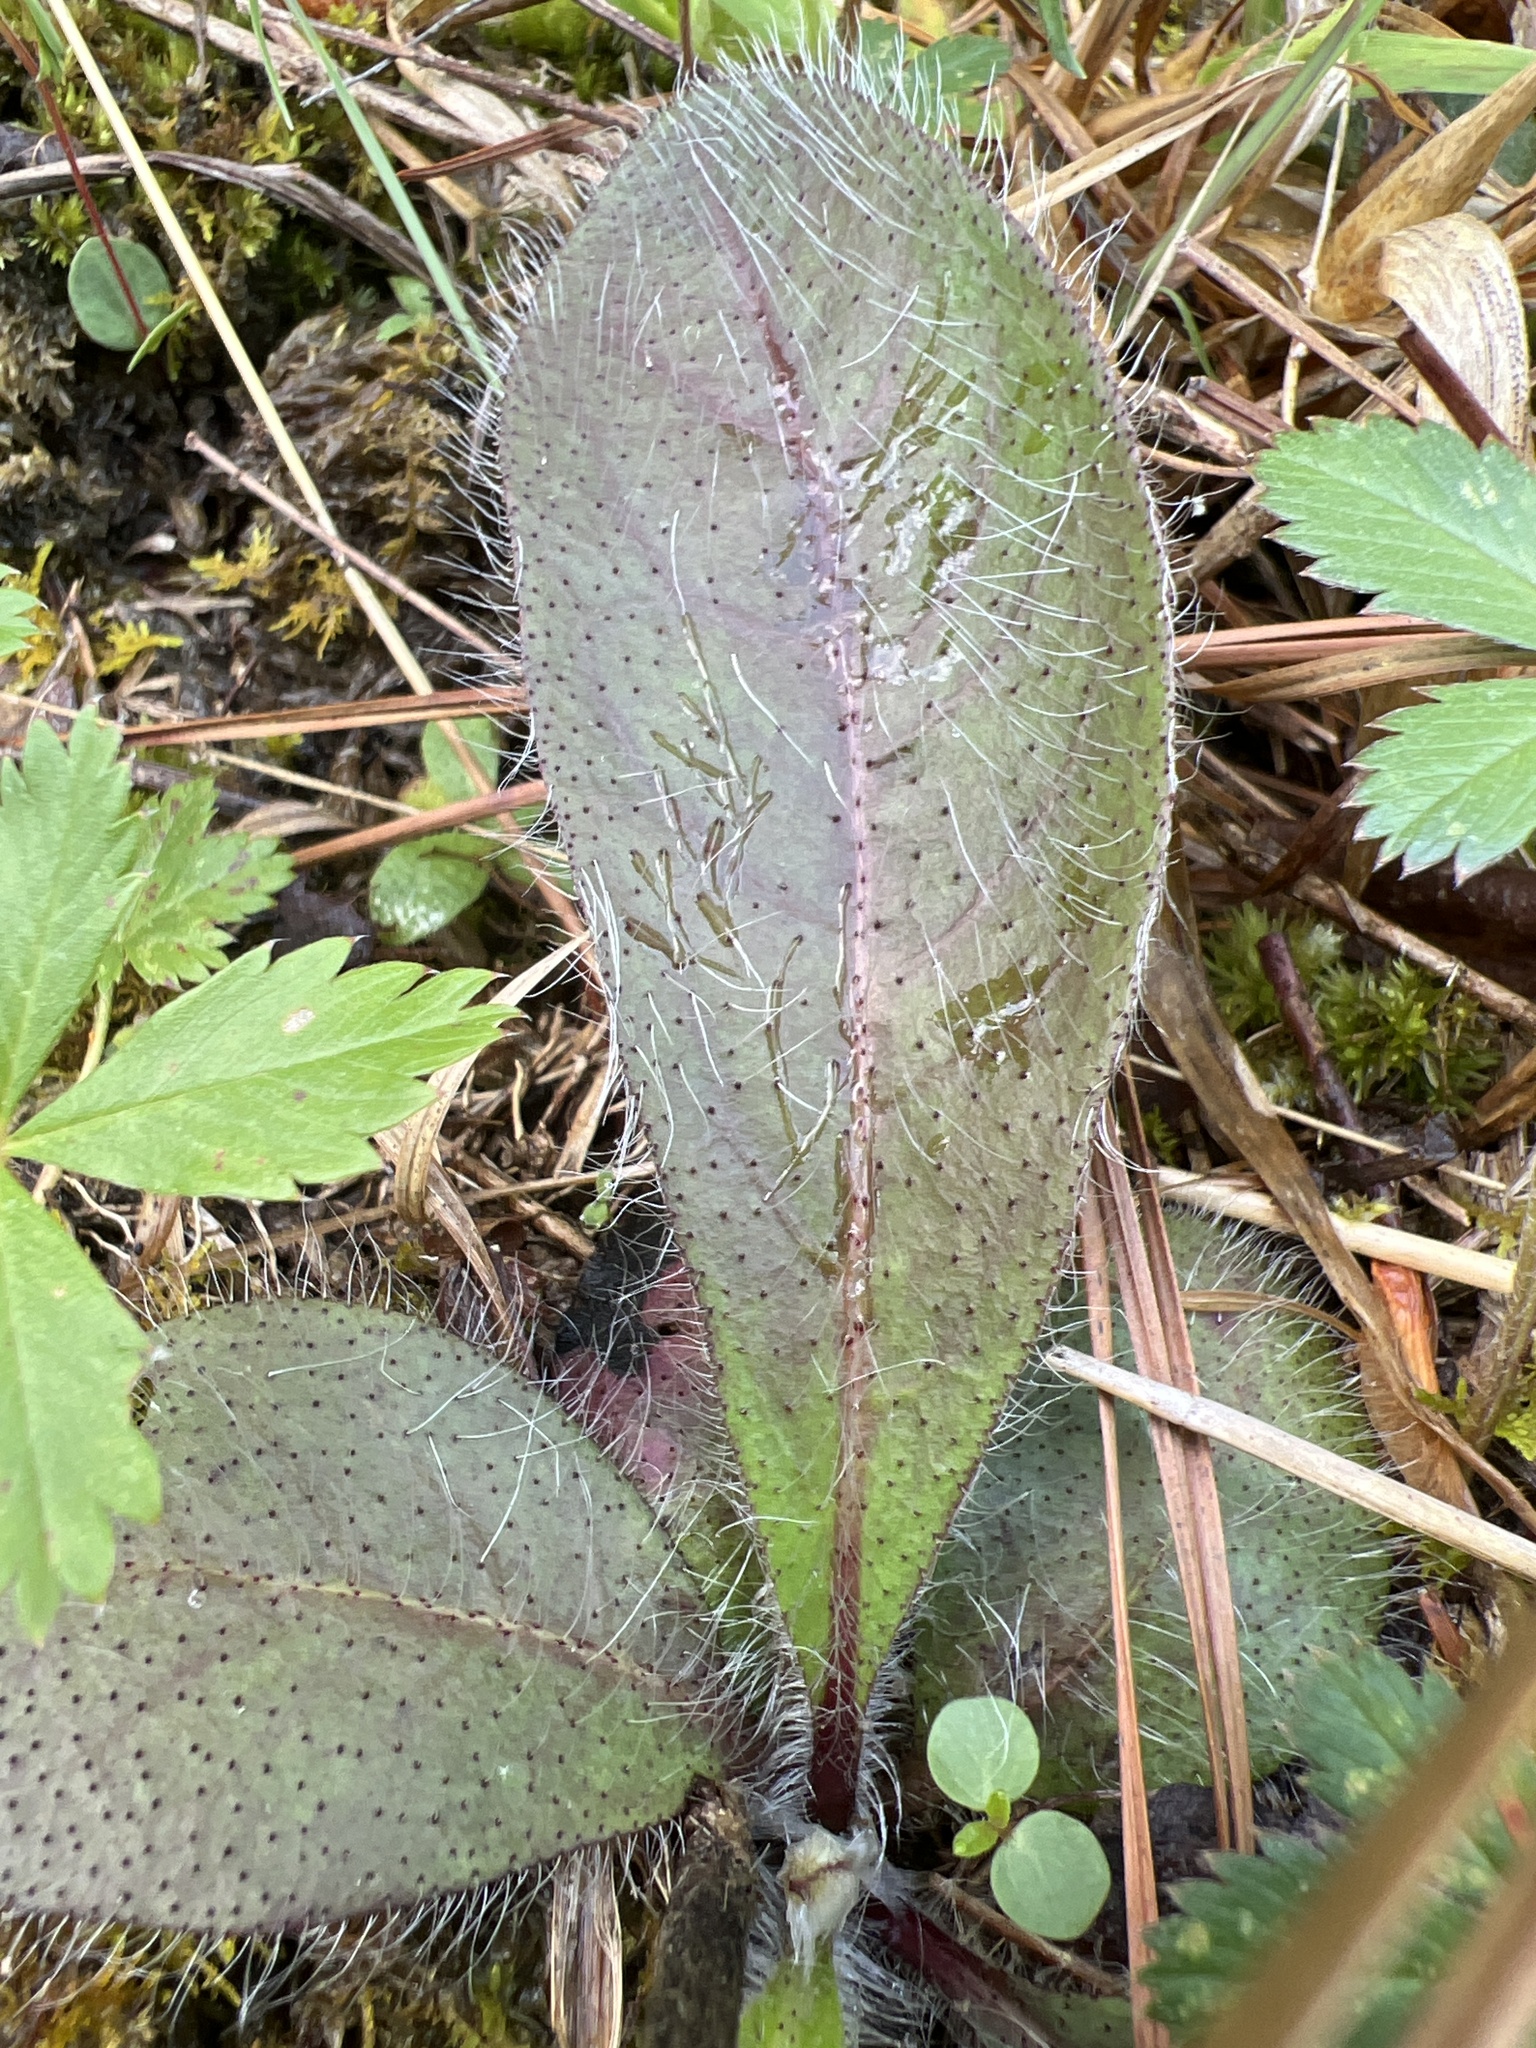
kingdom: Plantae
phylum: Tracheophyta
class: Magnoliopsida
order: Asterales
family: Asteraceae
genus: Hieracium
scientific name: Hieracium gronovii
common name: Beaked hawkweed
